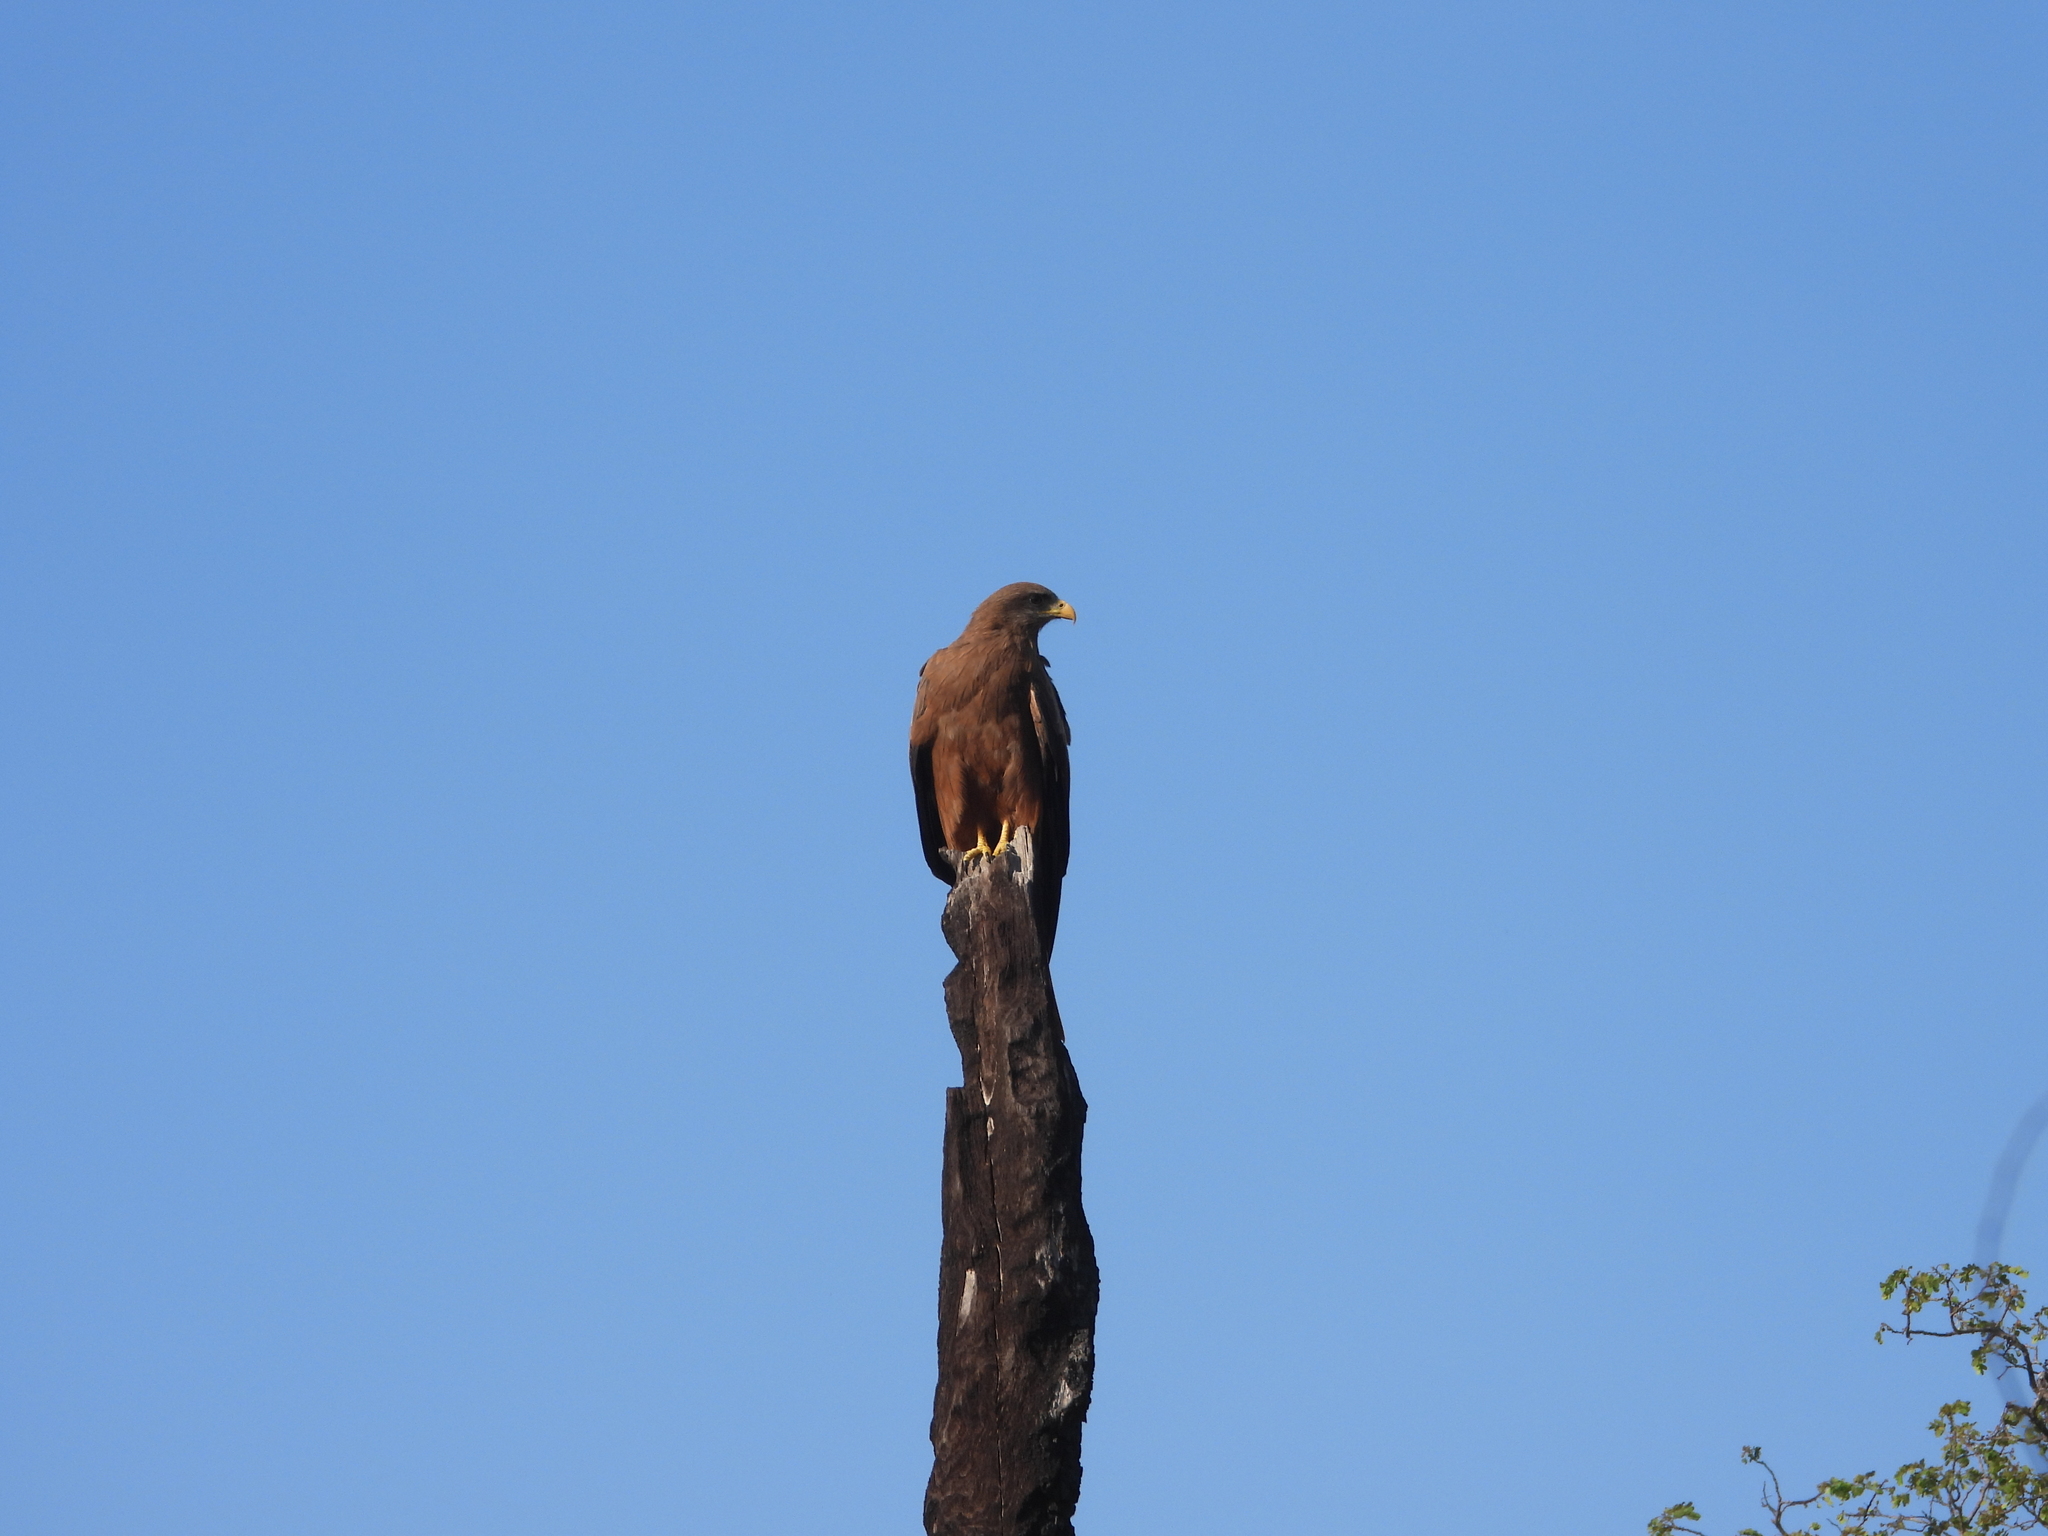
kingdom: Animalia
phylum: Chordata
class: Aves
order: Accipitriformes
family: Accipitridae
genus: Milvus
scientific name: Milvus migrans
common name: Black kite
